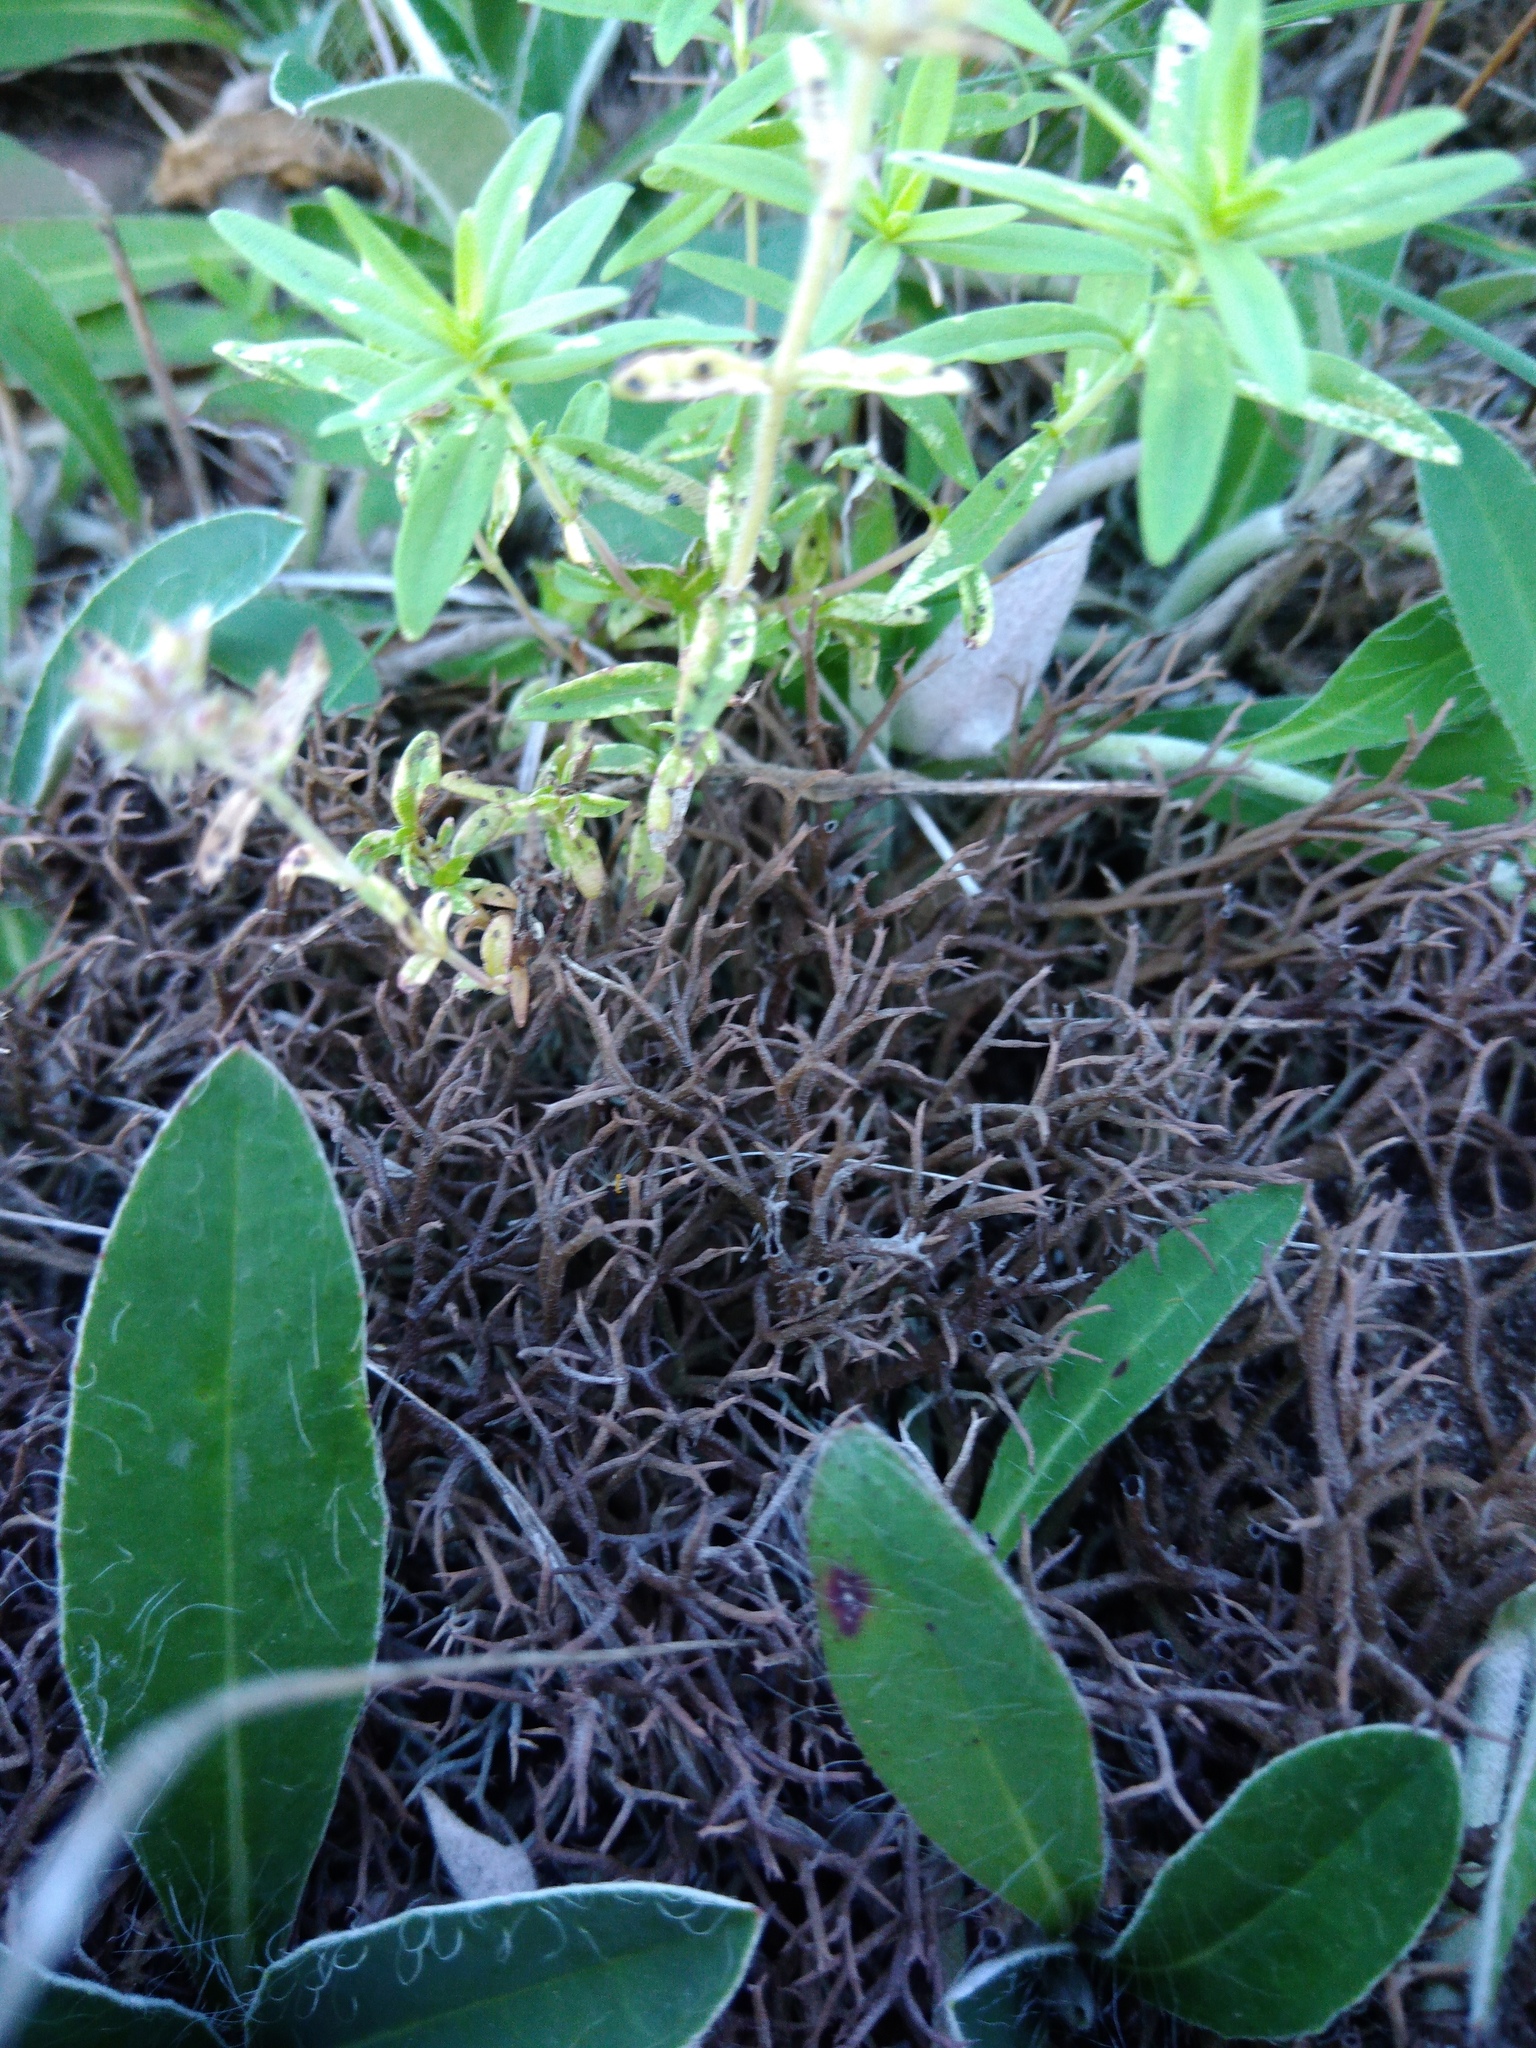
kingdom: Fungi
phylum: Ascomycota
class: Lecanoromycetes
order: Lecanorales
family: Cladoniaceae
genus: Cladonia
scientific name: Cladonia rangiformis
